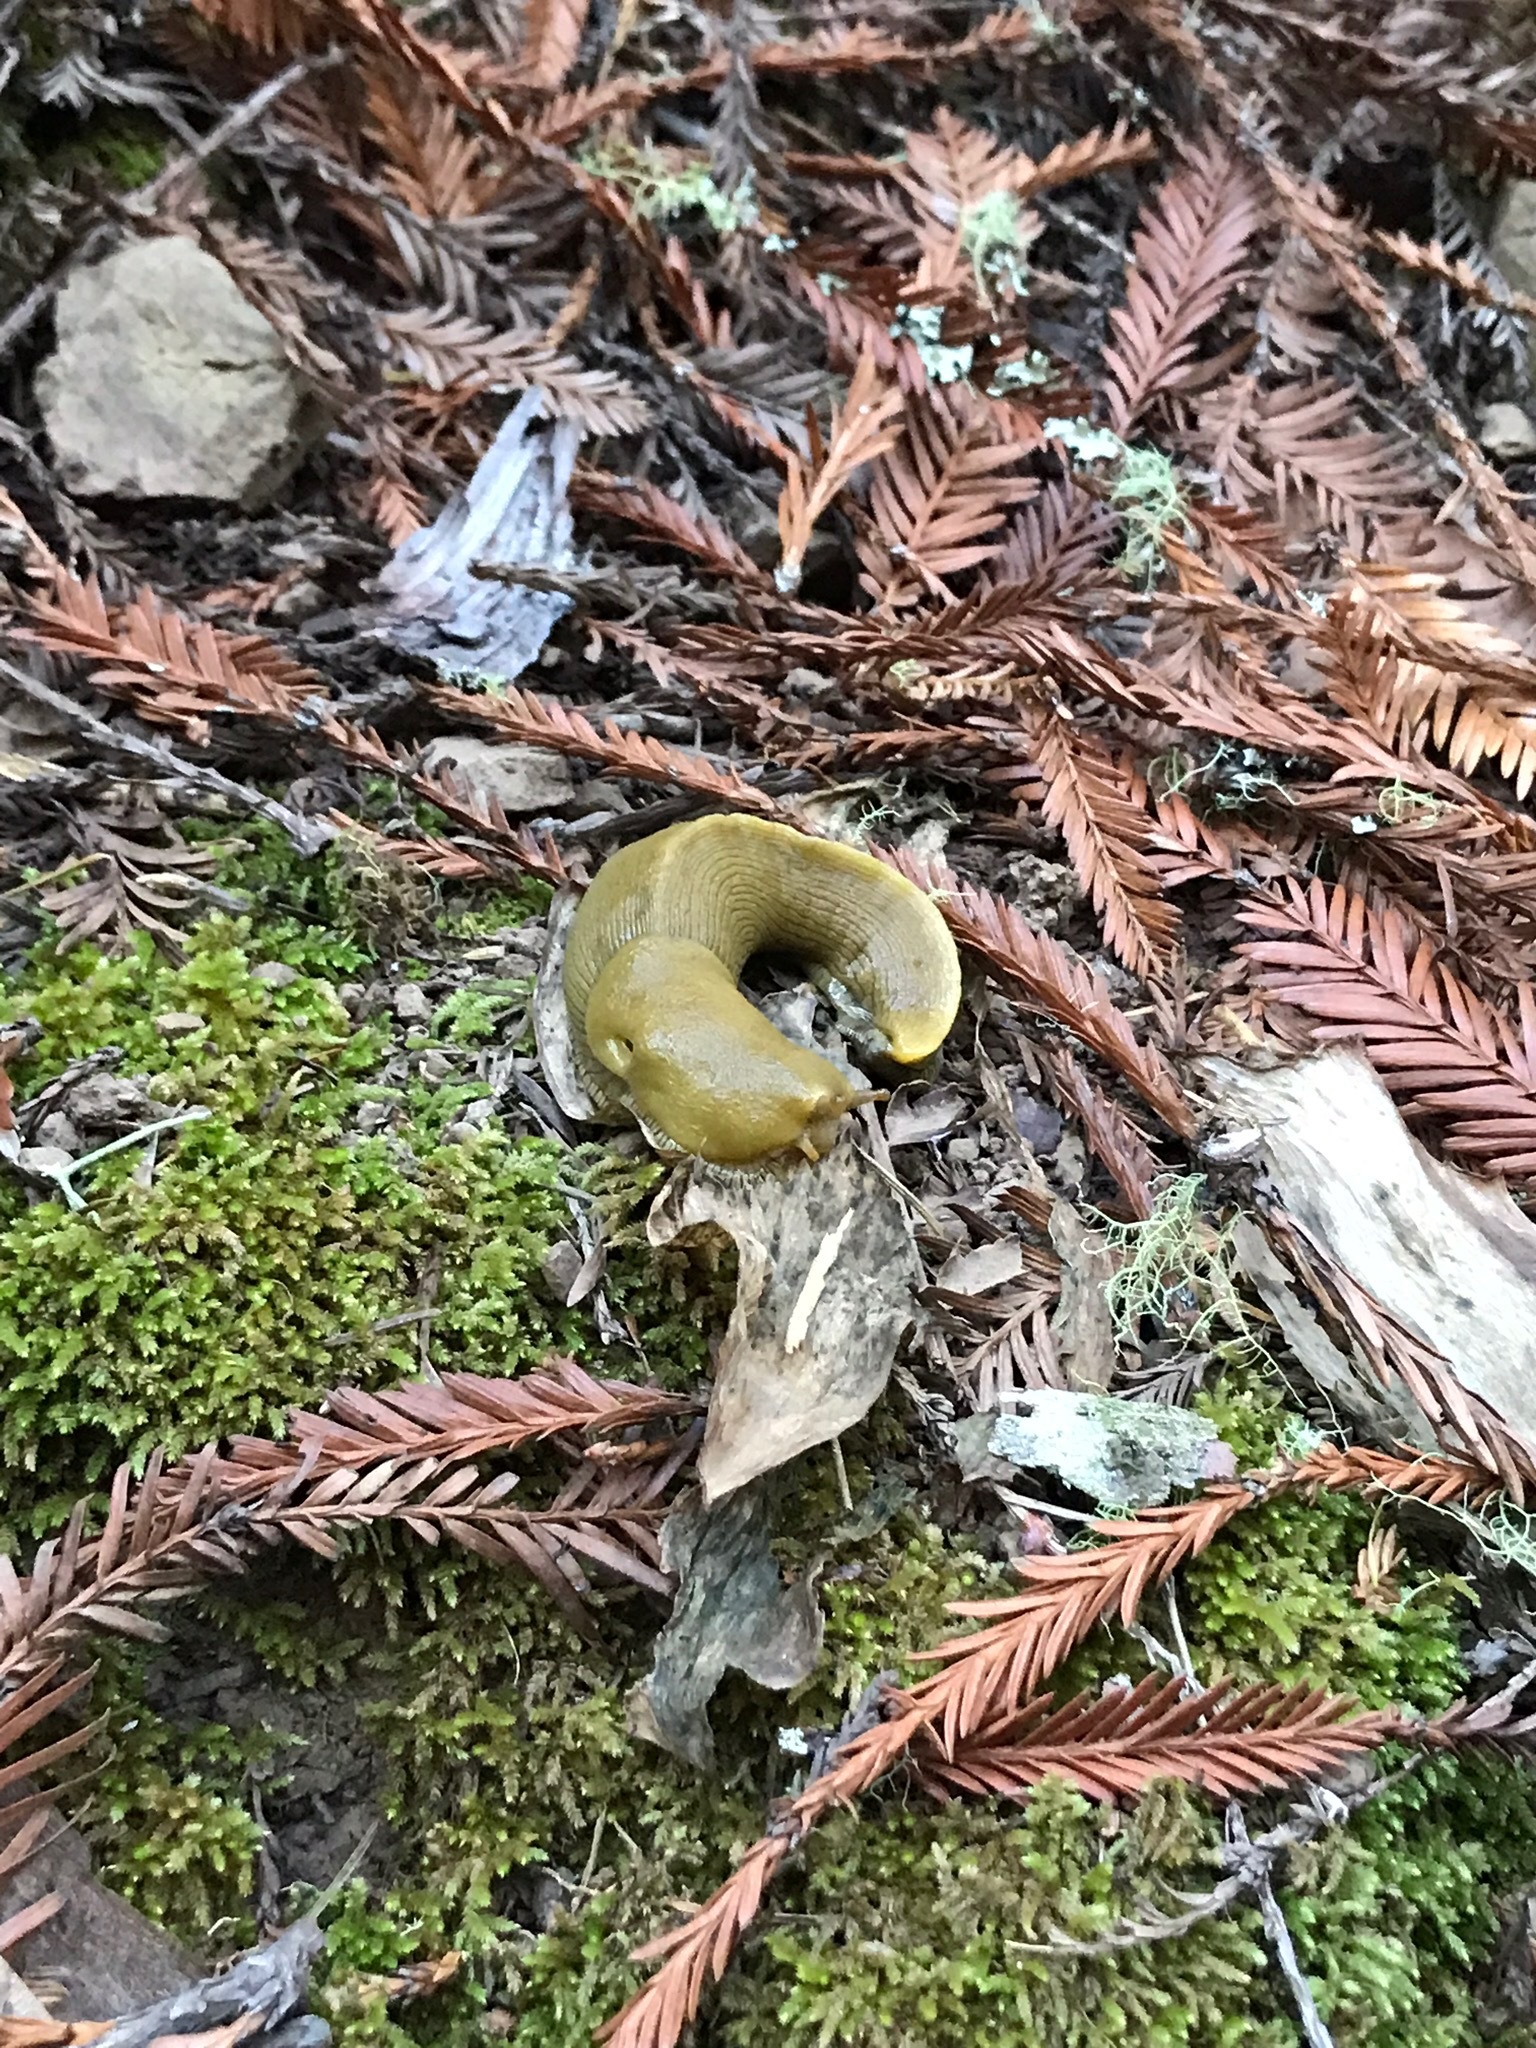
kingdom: Animalia
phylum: Mollusca
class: Gastropoda
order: Stylommatophora
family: Ariolimacidae
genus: Ariolimax
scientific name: Ariolimax buttoni
